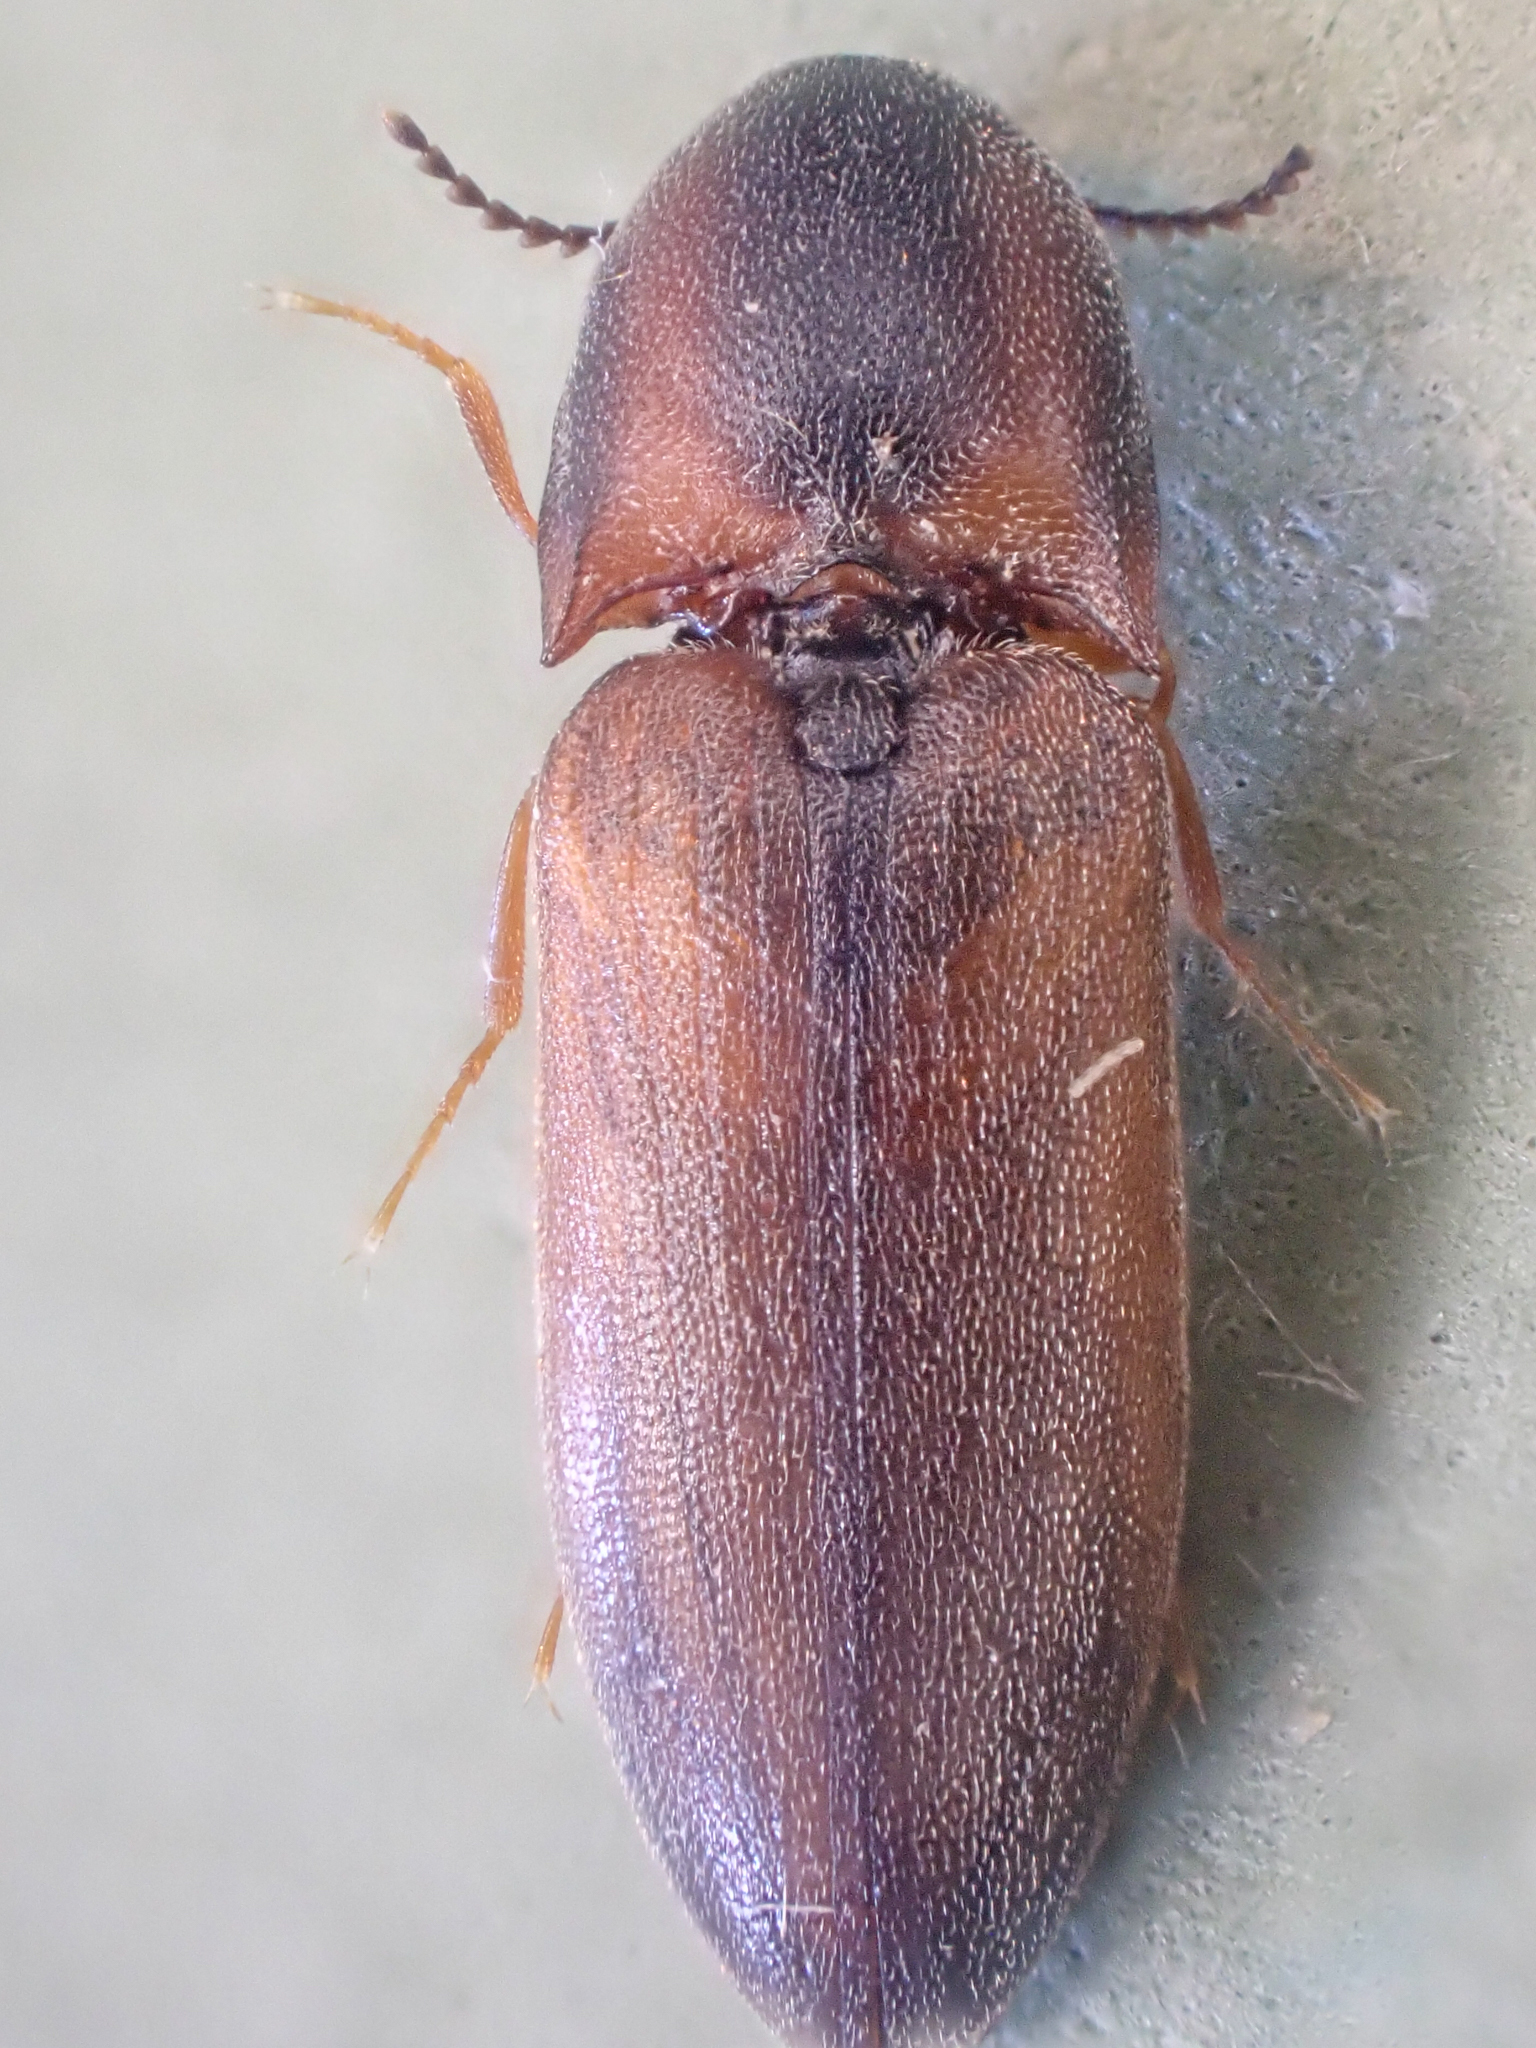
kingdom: Animalia
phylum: Arthropoda
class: Insecta
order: Coleoptera
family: Elateridae
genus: Sericus
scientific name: Sericus incongruus
